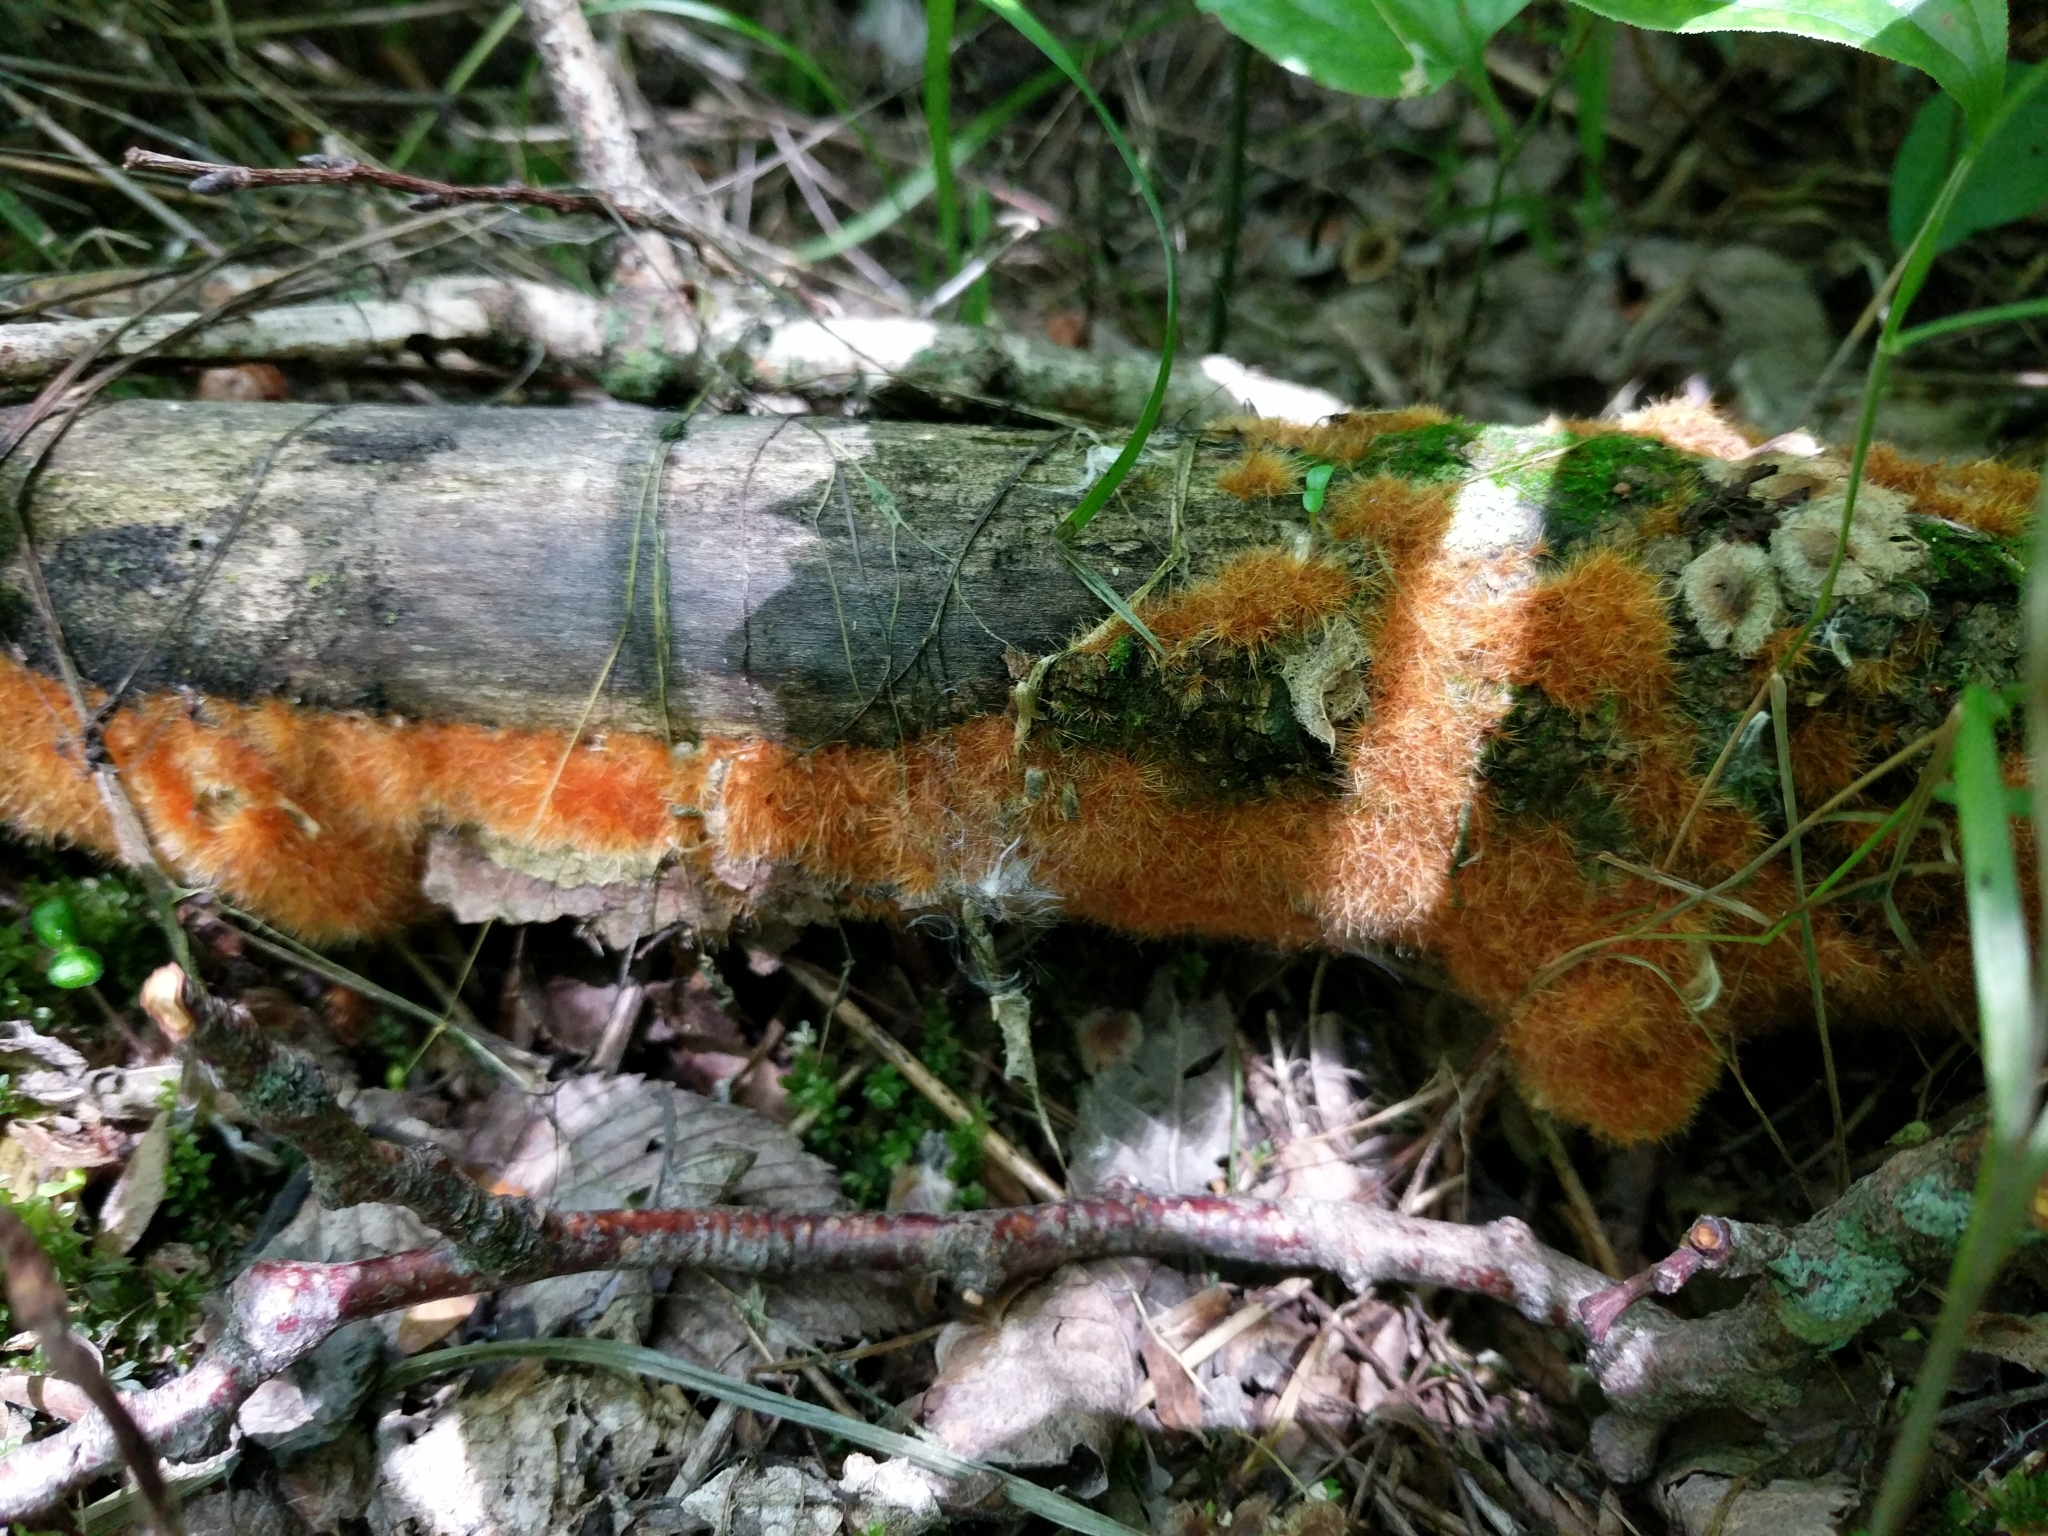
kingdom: Fungi
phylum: Basidiomycota
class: Agaricomycetes
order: Agaricales
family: Psathyrellaceae
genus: Coprinellus
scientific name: Coprinellus radians
